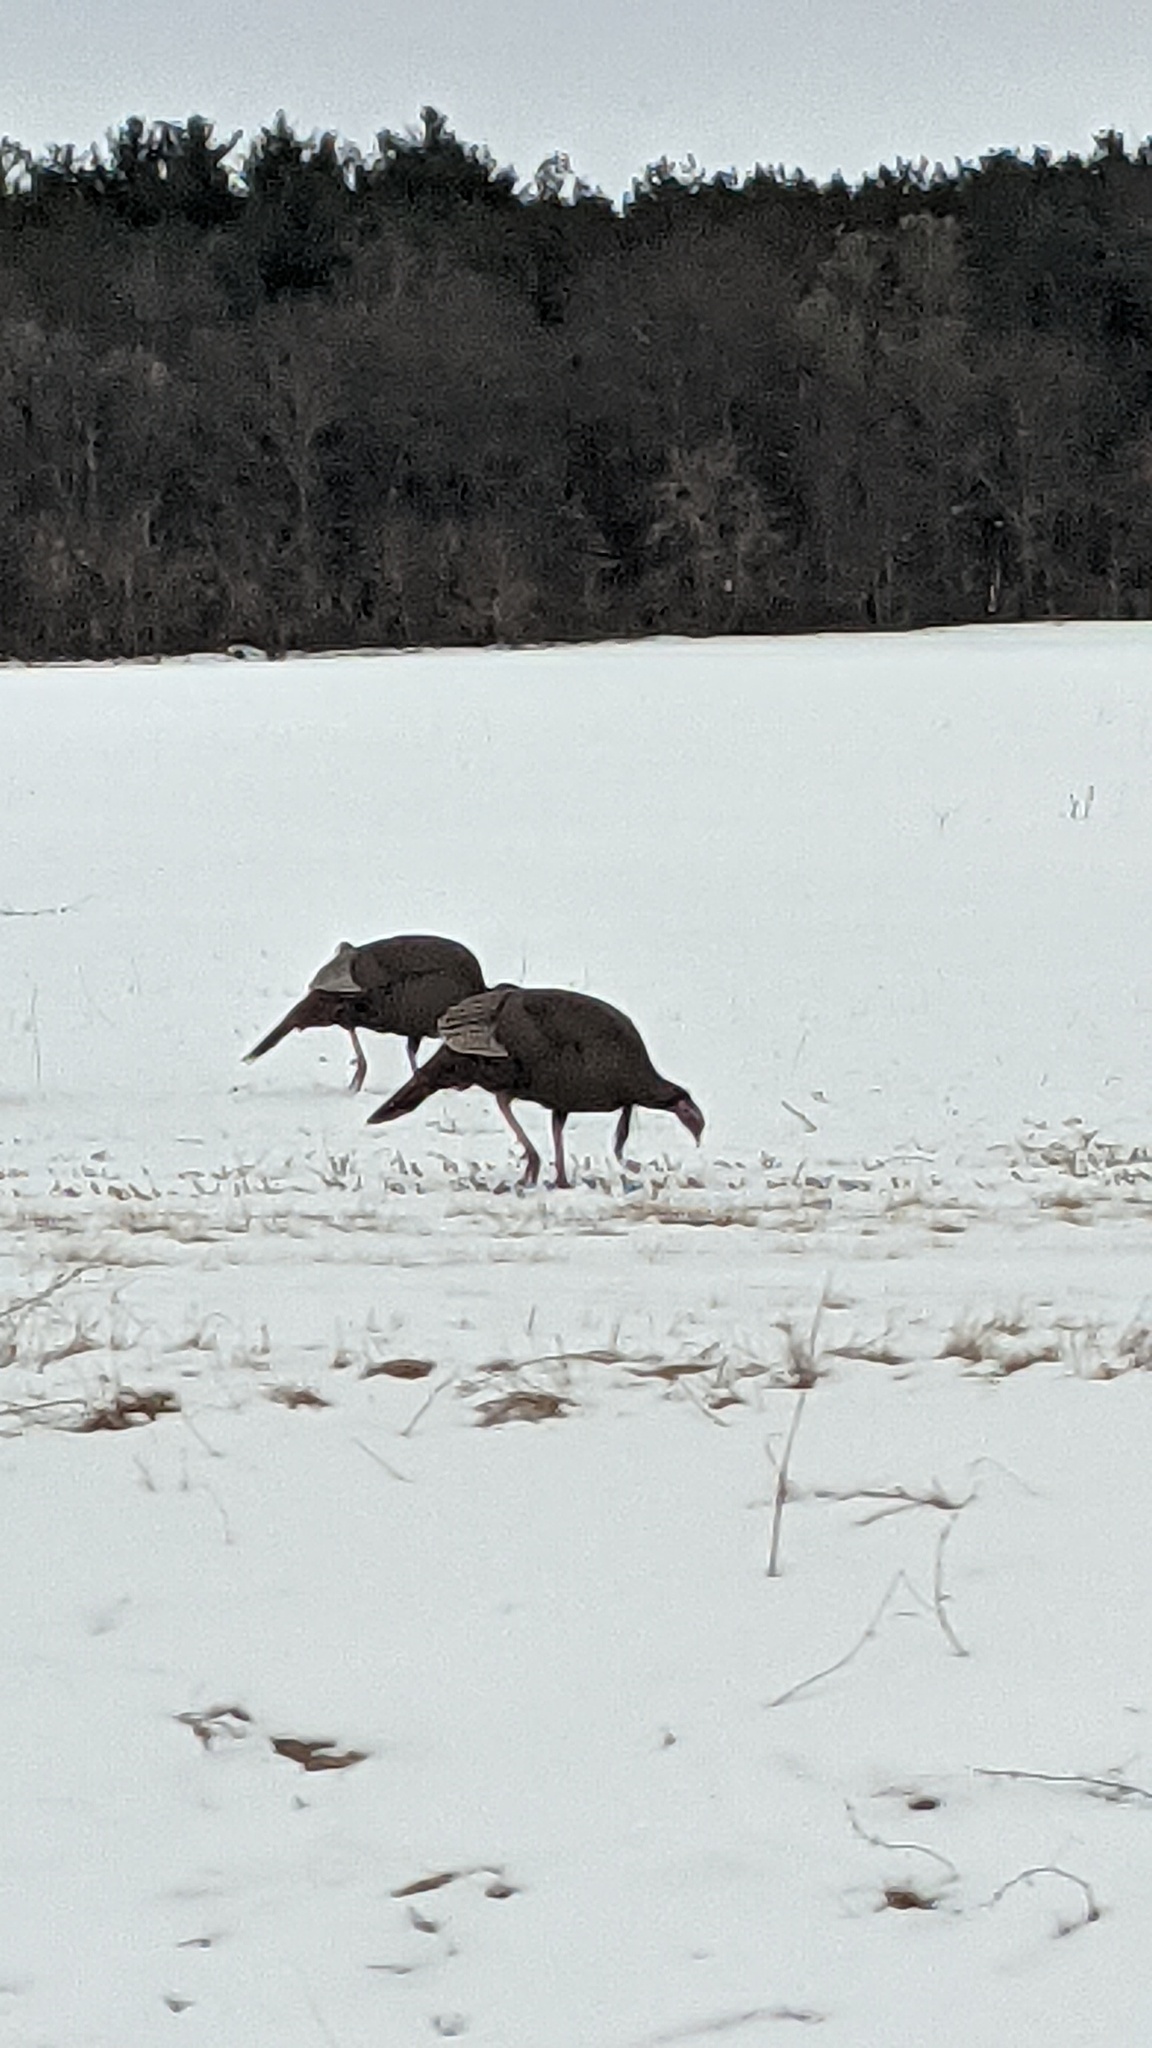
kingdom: Animalia
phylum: Chordata
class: Aves
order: Galliformes
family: Phasianidae
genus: Meleagris
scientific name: Meleagris gallopavo
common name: Wild turkey
